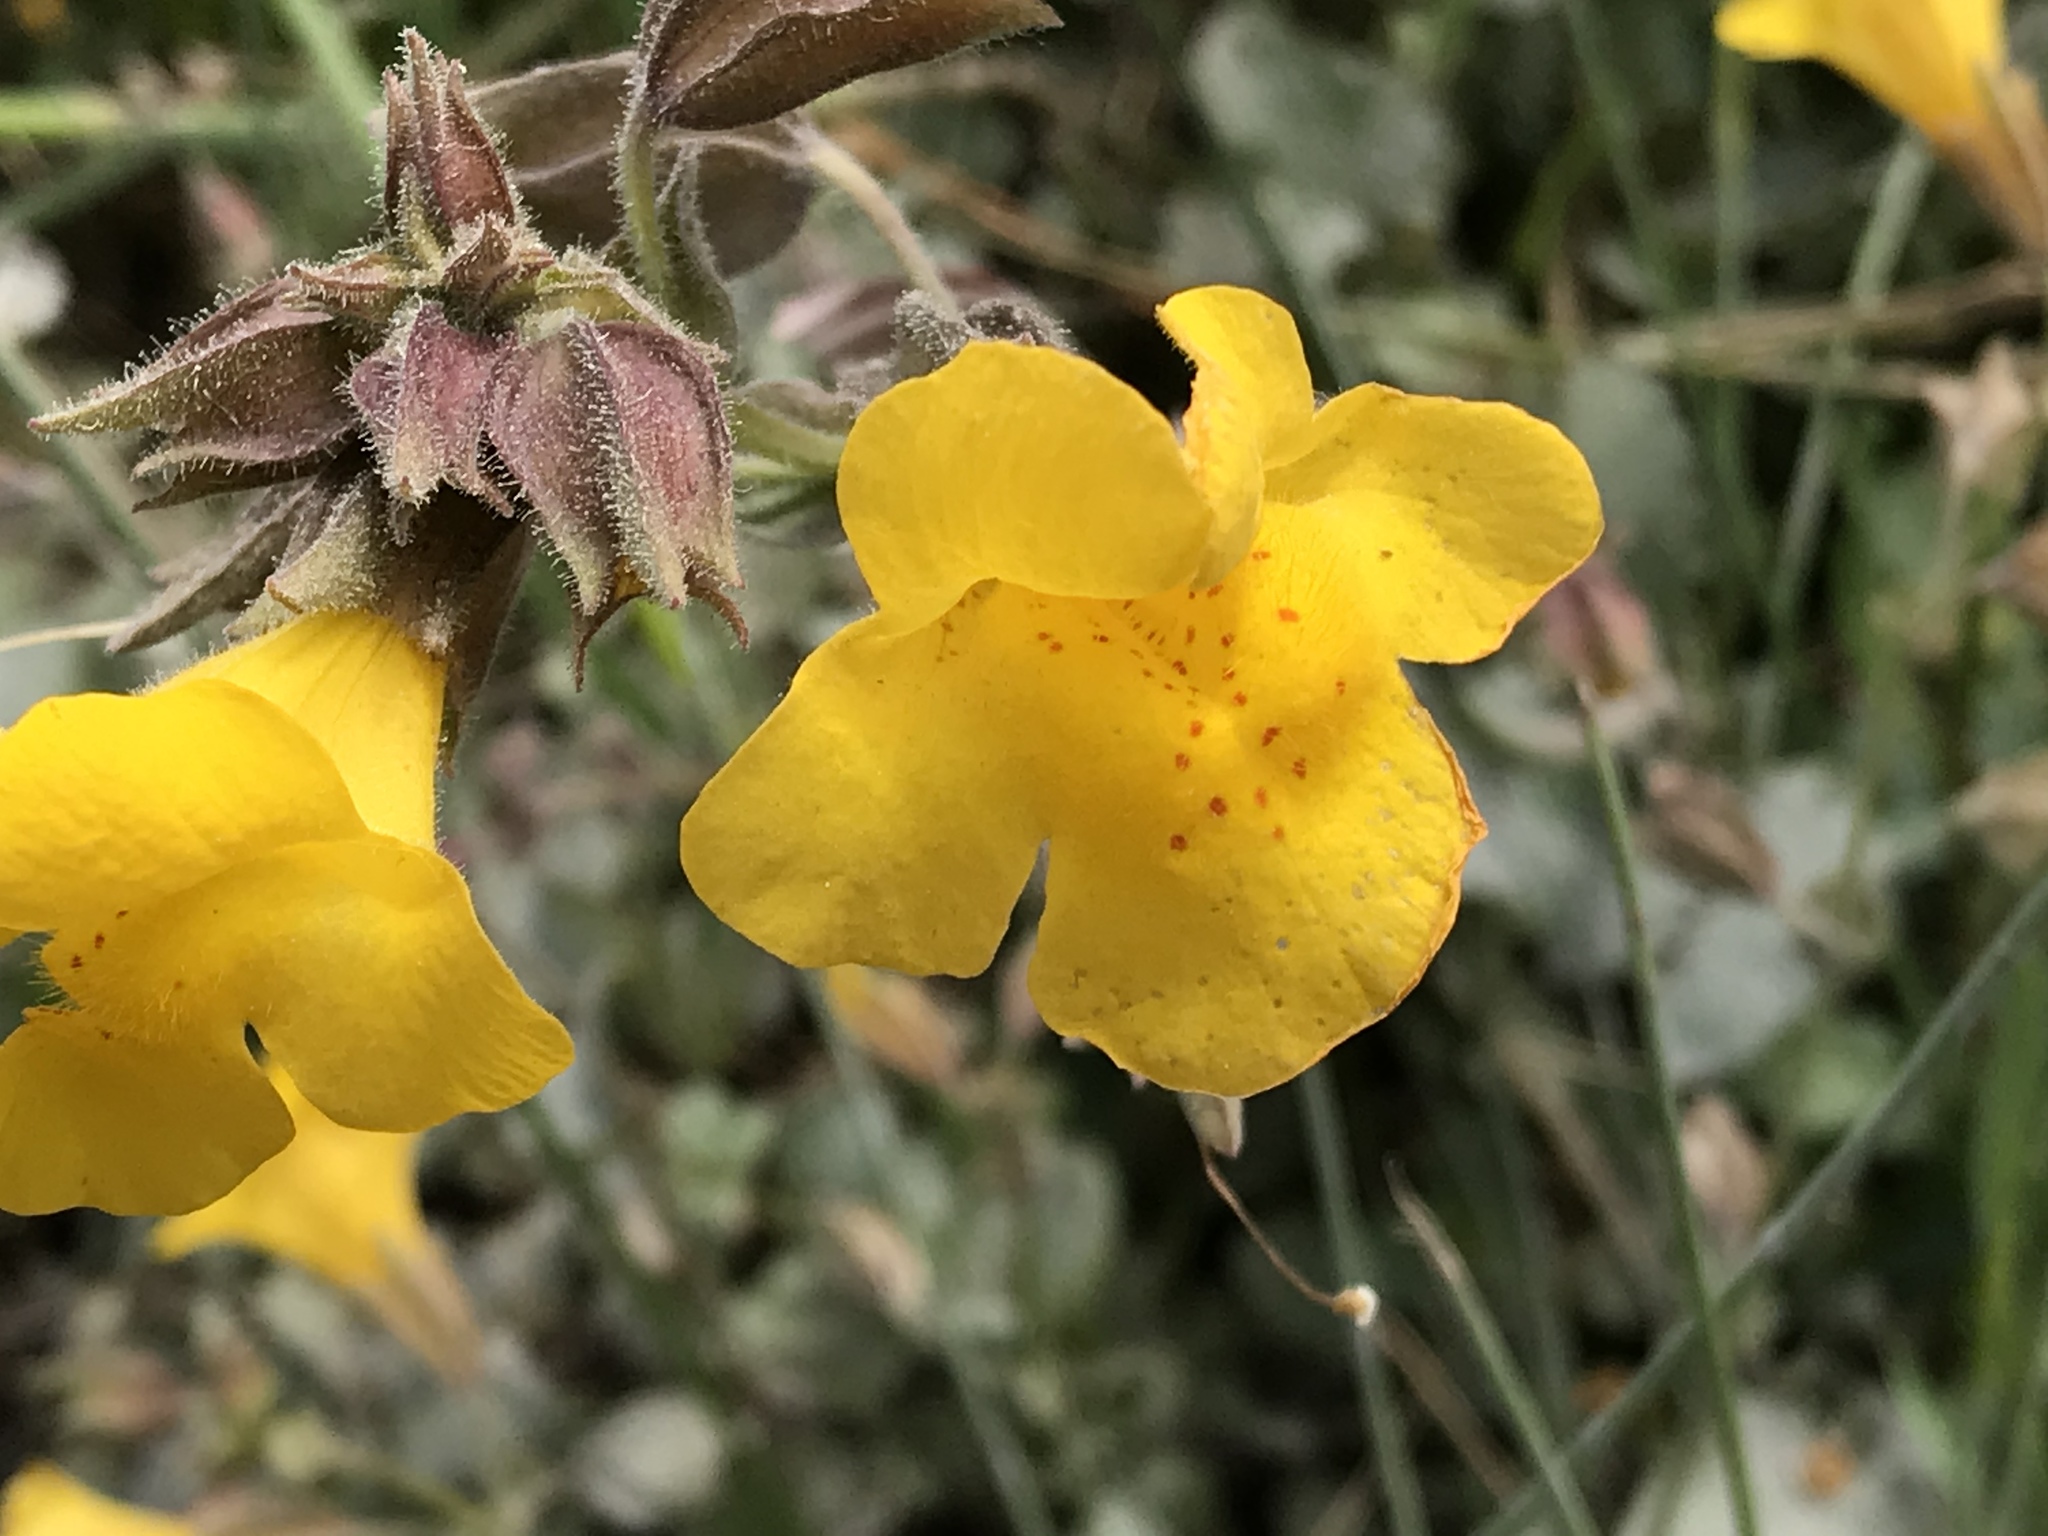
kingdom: Plantae
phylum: Tracheophyta
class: Magnoliopsida
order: Lamiales
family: Phrymaceae
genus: Erythranthe
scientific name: Erythranthe guttata
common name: Monkeyflower
